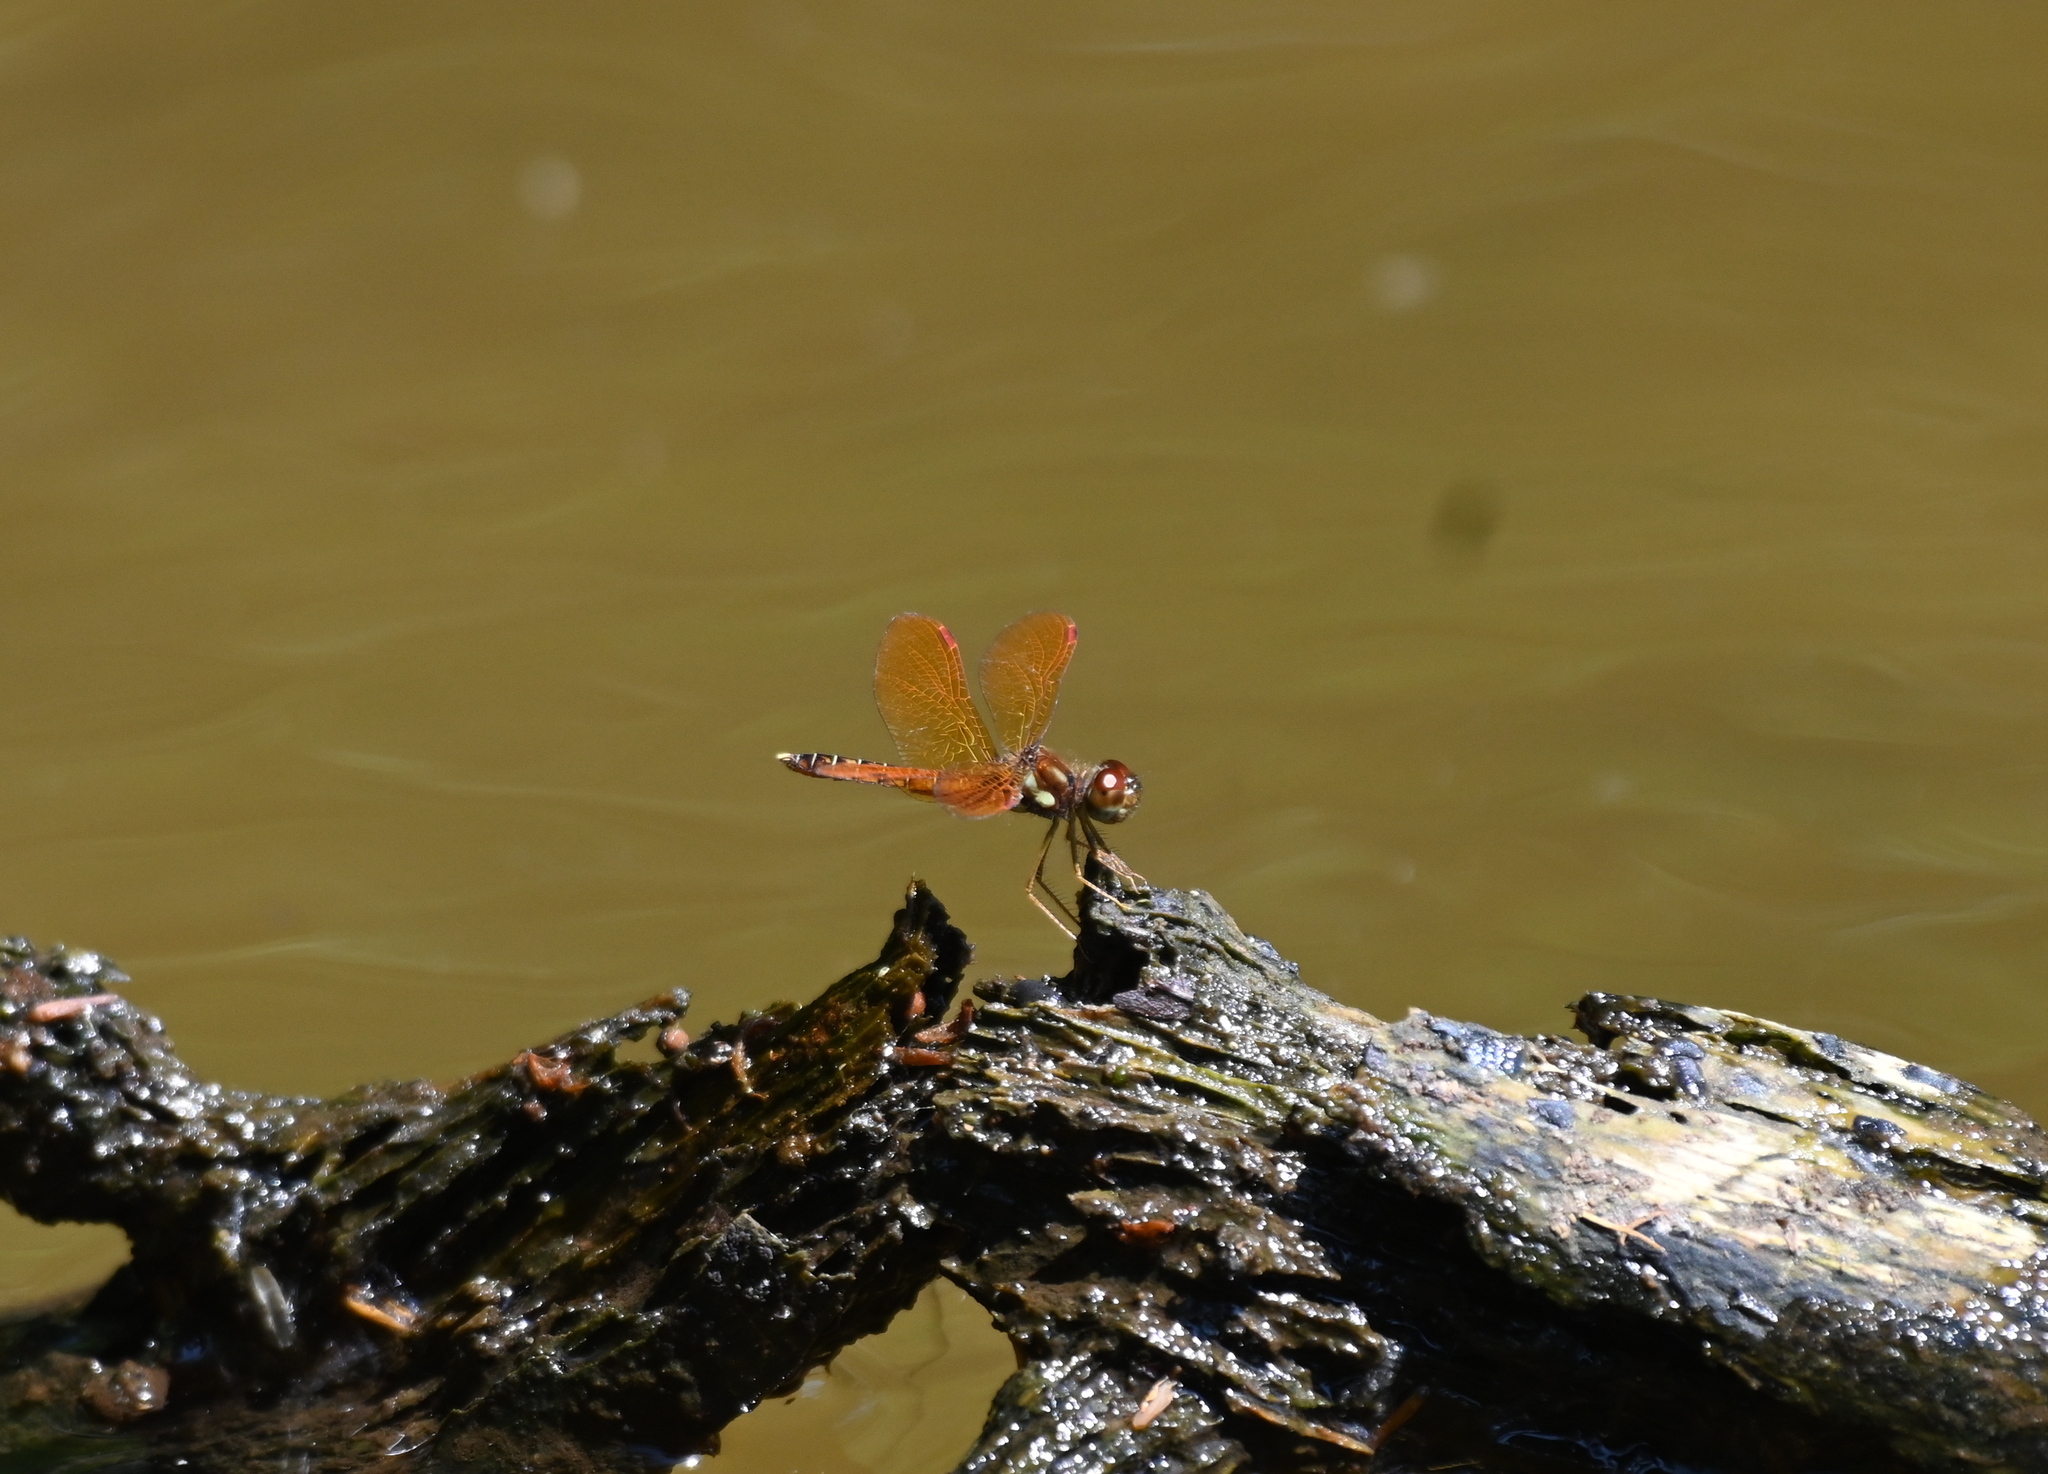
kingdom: Animalia
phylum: Arthropoda
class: Insecta
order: Odonata
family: Libellulidae
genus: Perithemis
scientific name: Perithemis tenera
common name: Eastern amberwing
